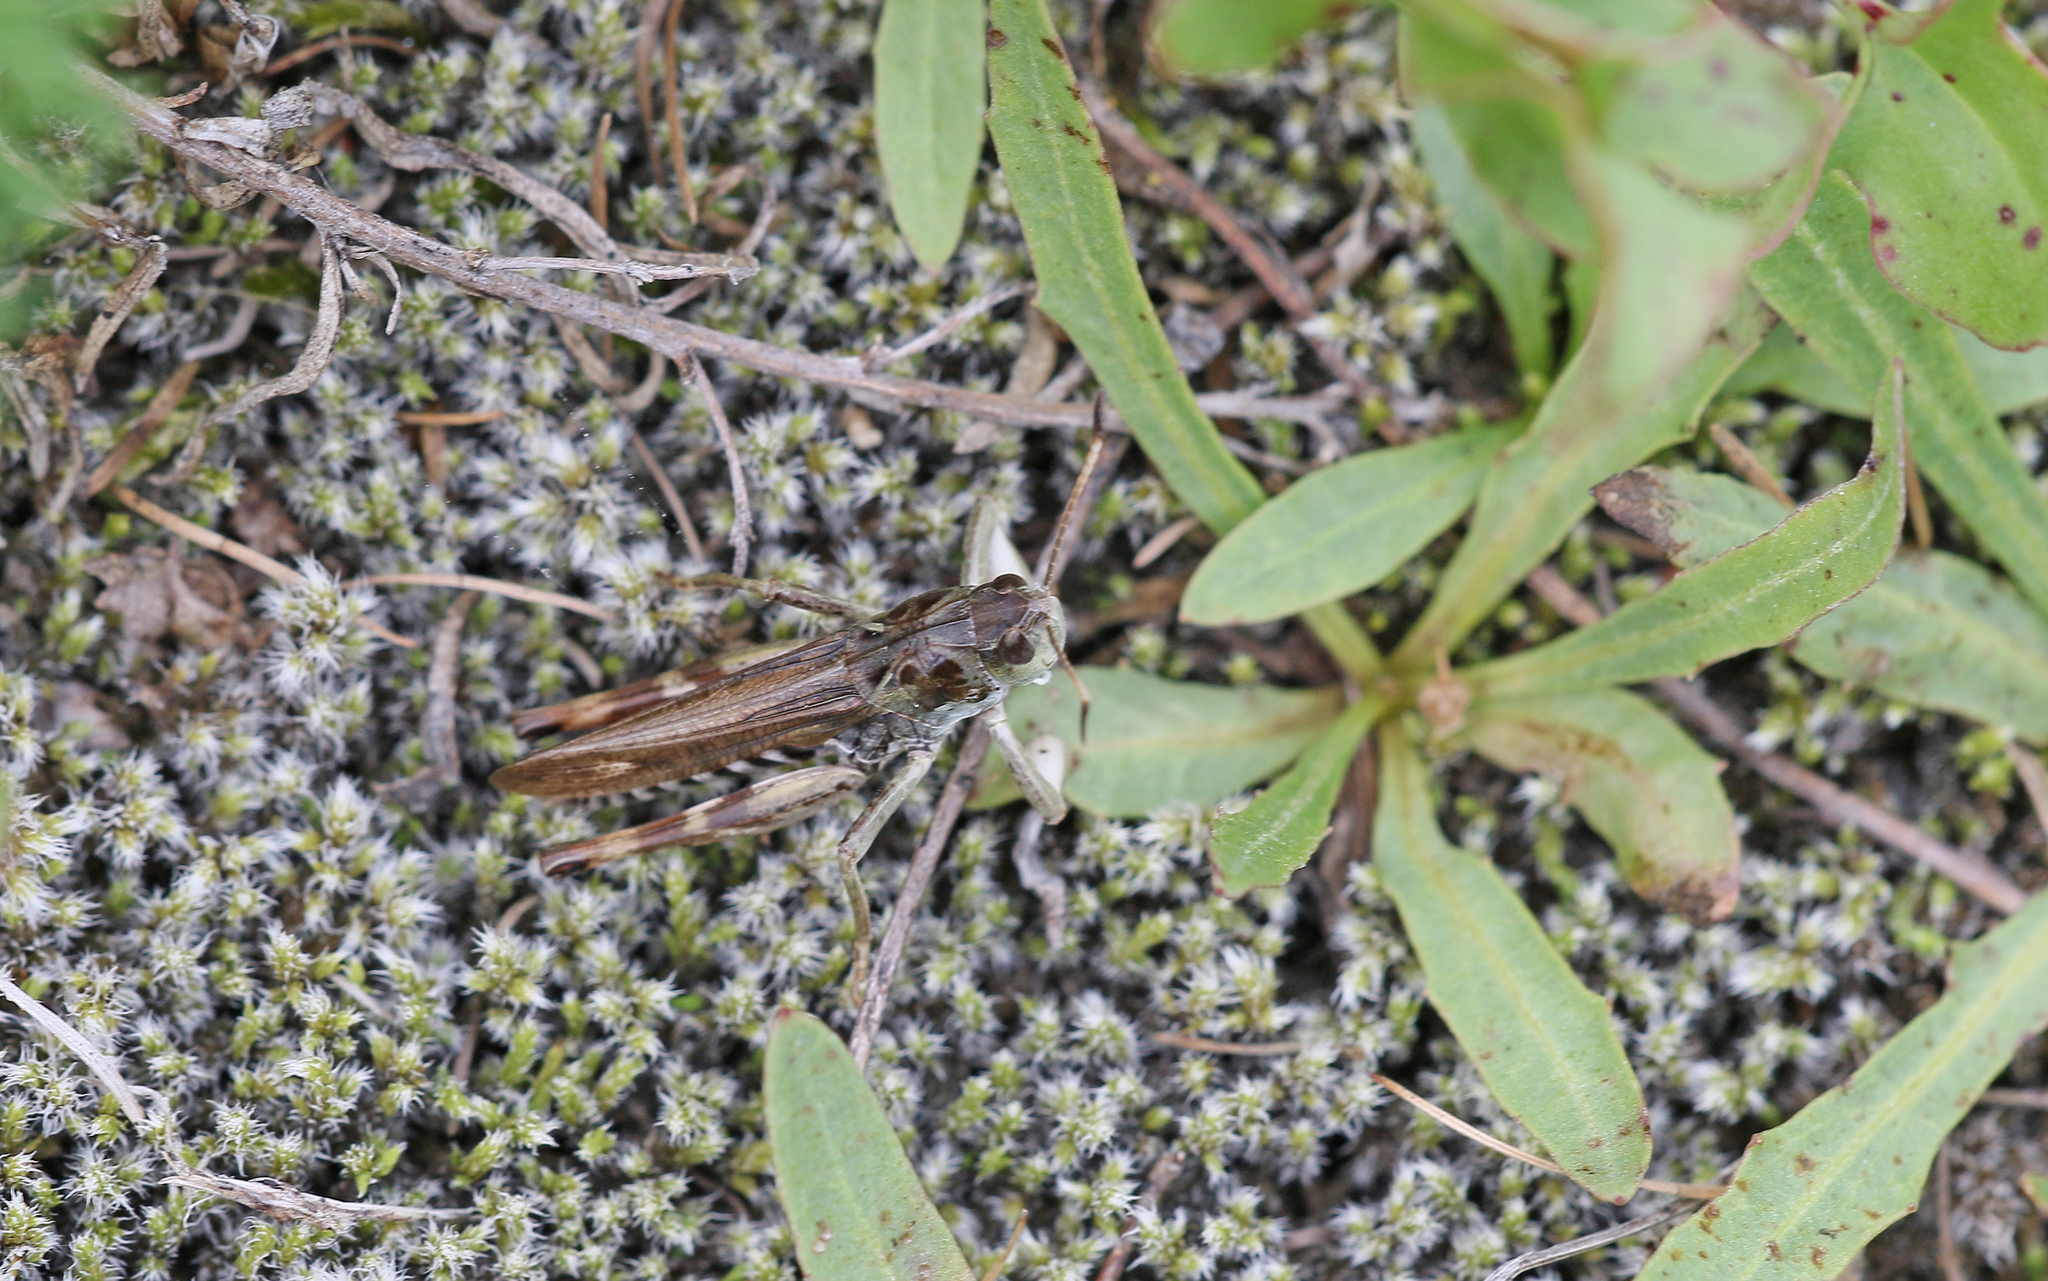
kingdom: Animalia
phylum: Arthropoda
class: Insecta
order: Orthoptera
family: Acrididae
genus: Gomphocerus
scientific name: Gomphocerus sibiricus
